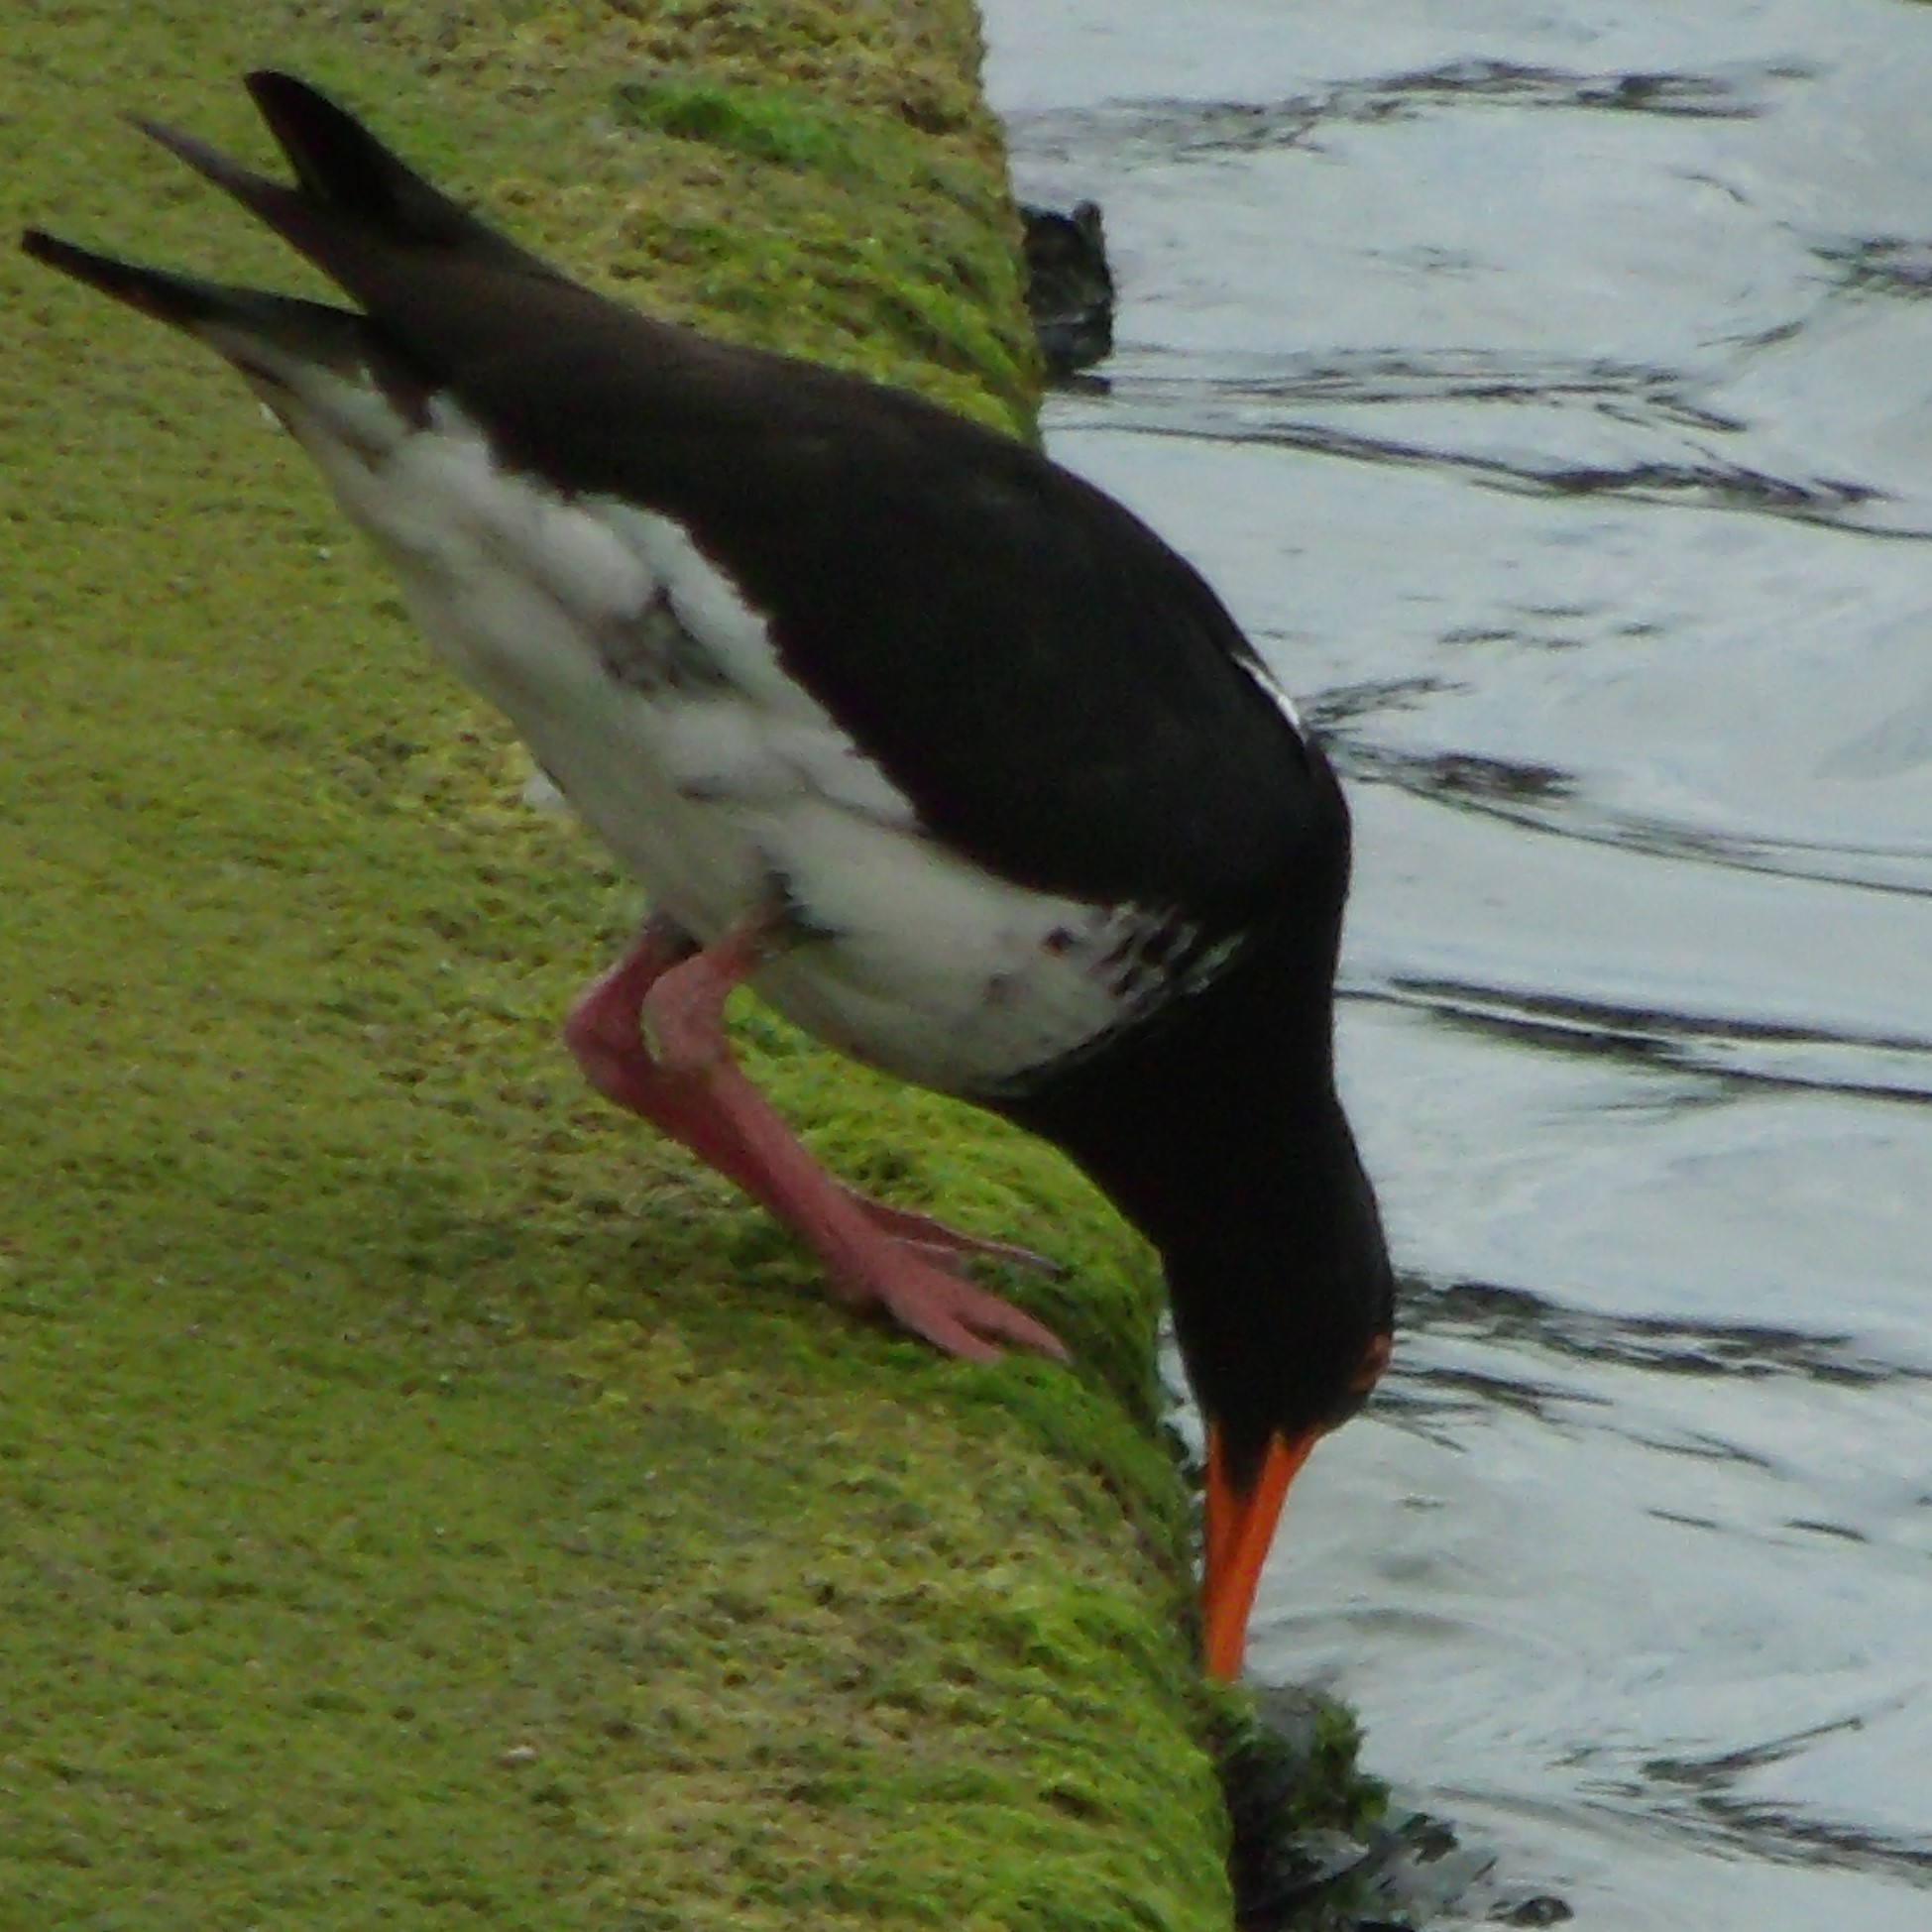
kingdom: Animalia
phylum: Chordata
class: Aves
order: Charadriiformes
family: Haematopodidae
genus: Haematopus
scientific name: Haematopus unicolor
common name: Variable oystercatcher
